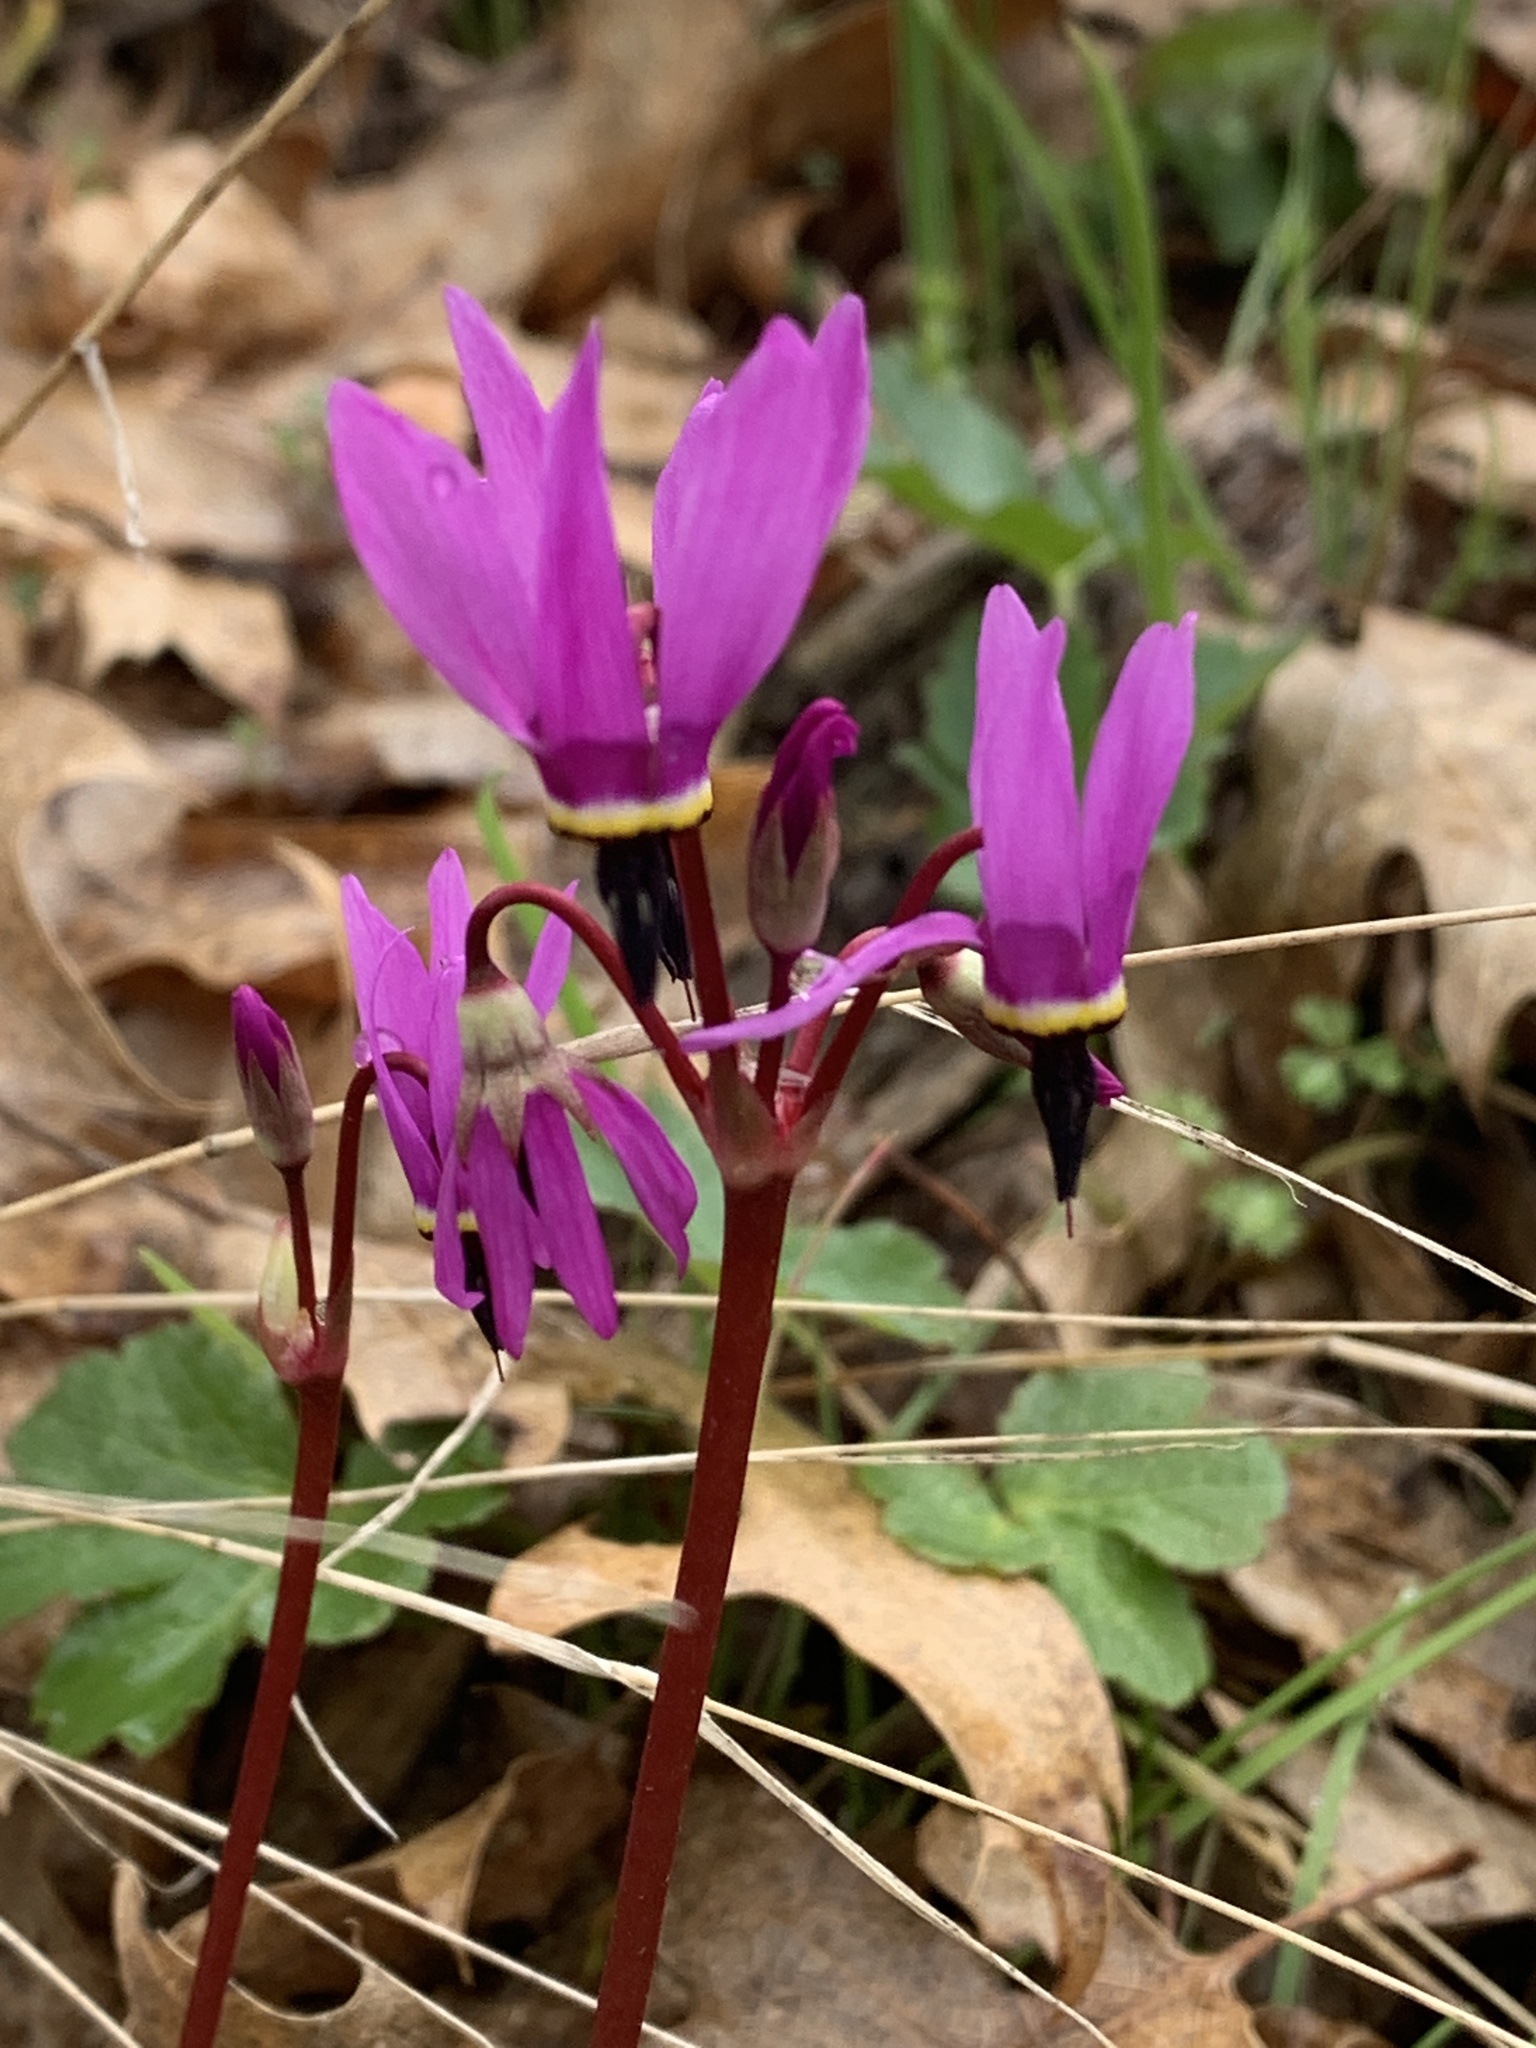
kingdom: Plantae
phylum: Tracheophyta
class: Magnoliopsida
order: Ericales
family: Primulaceae
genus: Dodecatheon
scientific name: Dodecatheon hendersonii
